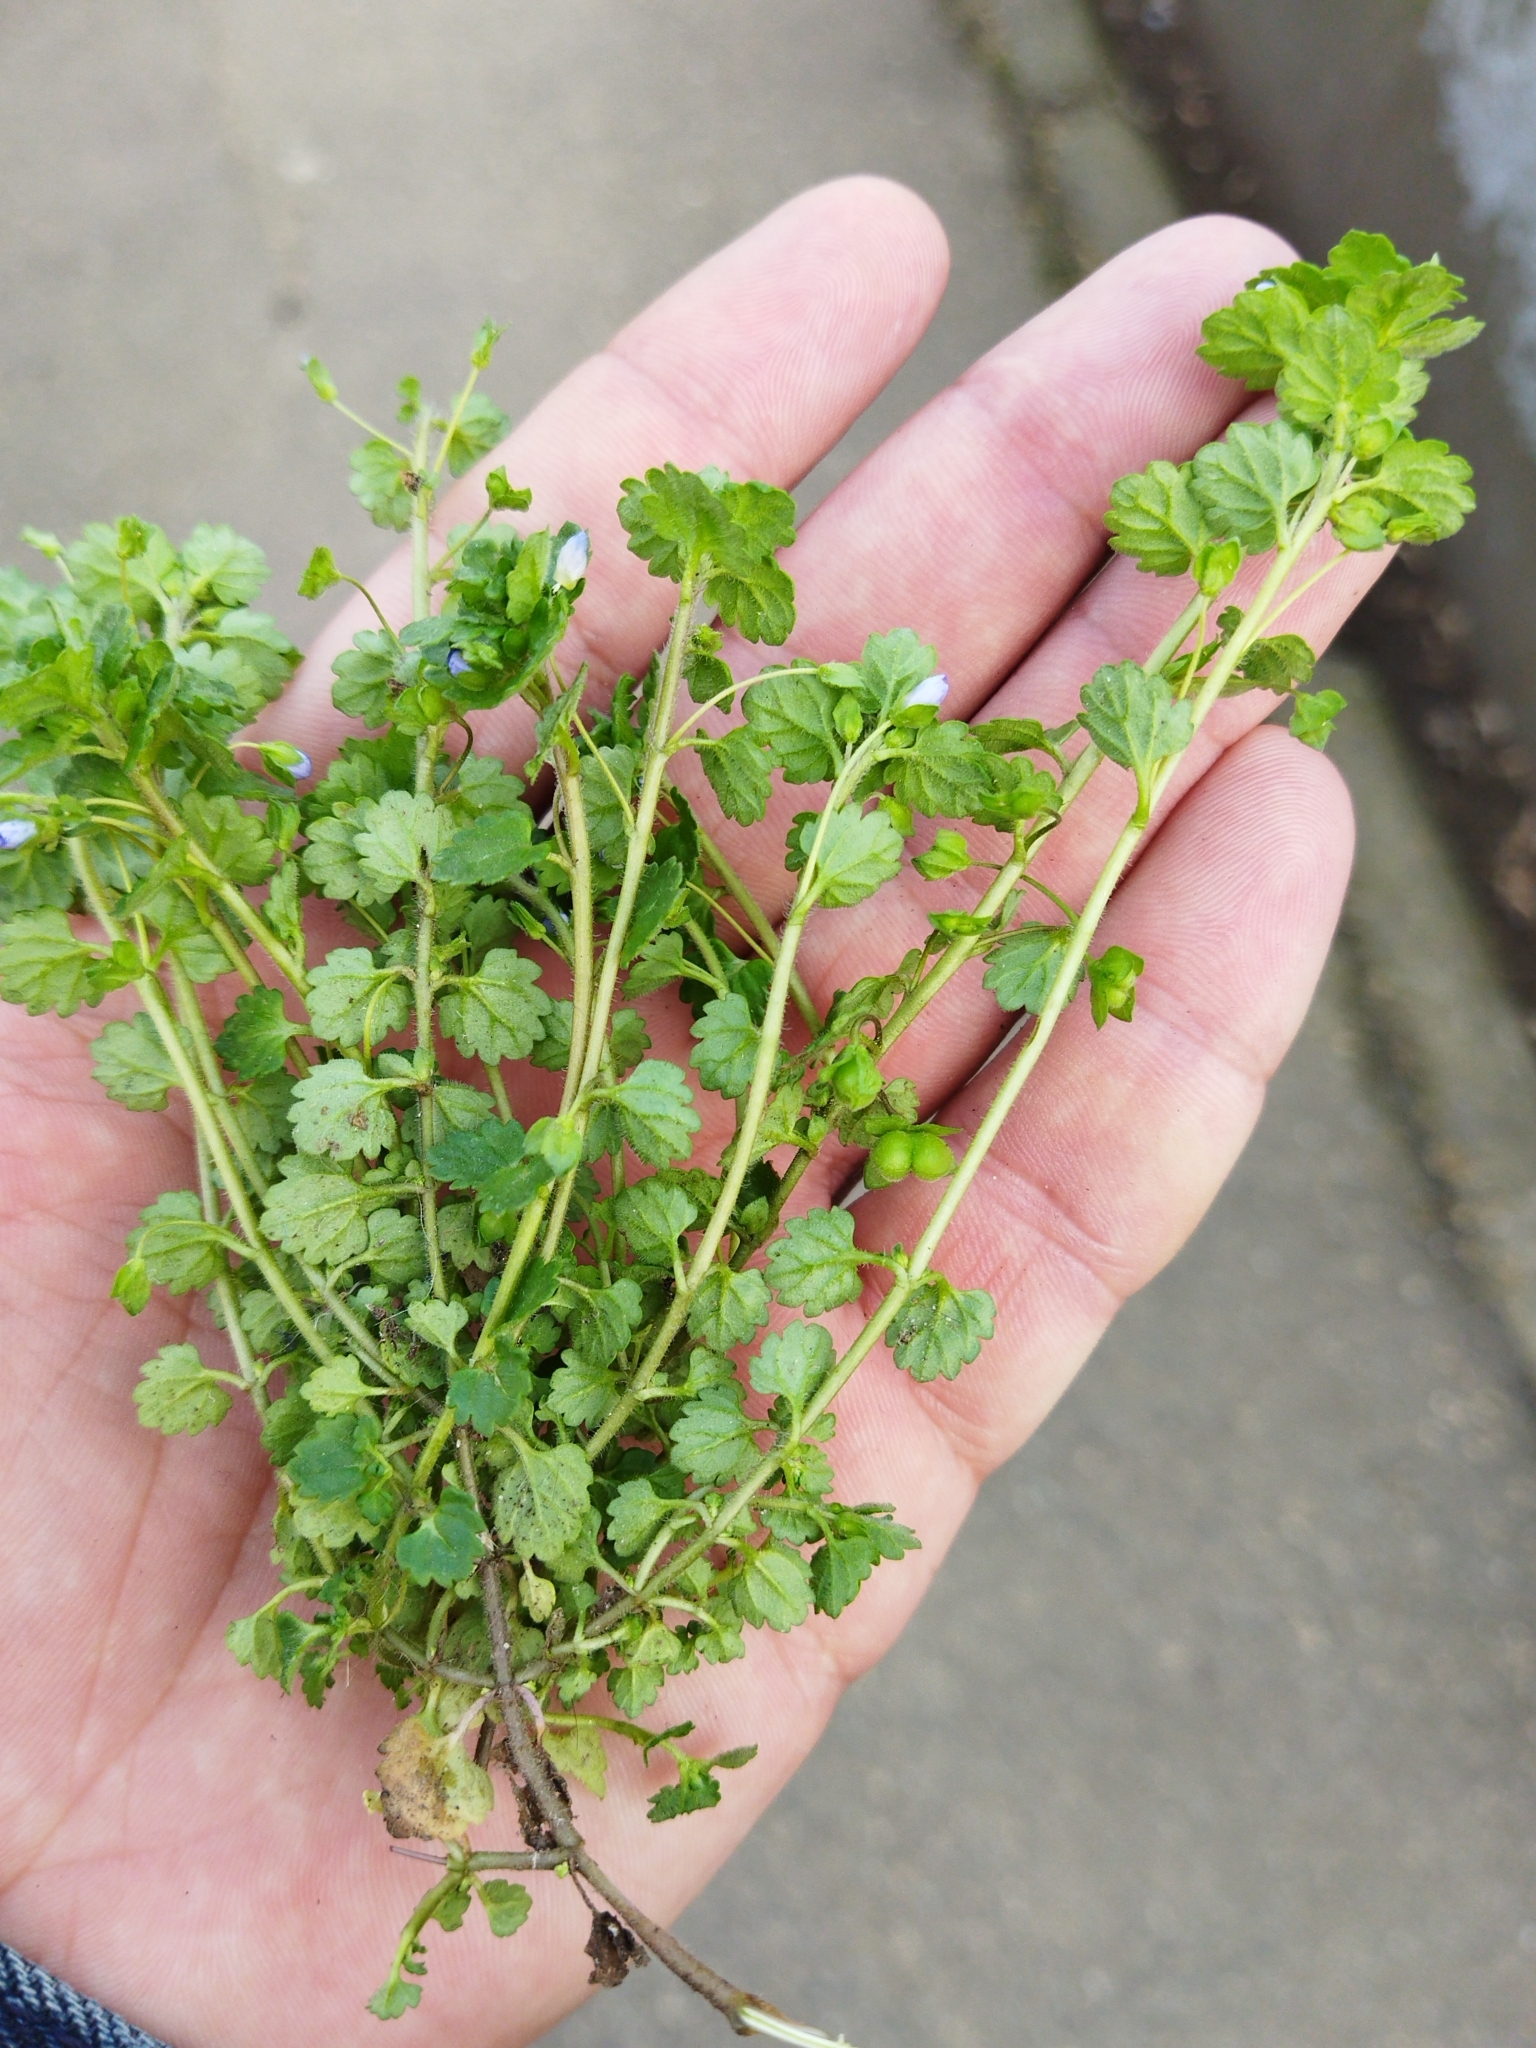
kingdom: Plantae
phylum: Tracheophyta
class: Magnoliopsida
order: Lamiales
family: Plantaginaceae
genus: Veronica
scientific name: Veronica polita
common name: Grey field-speedwell
